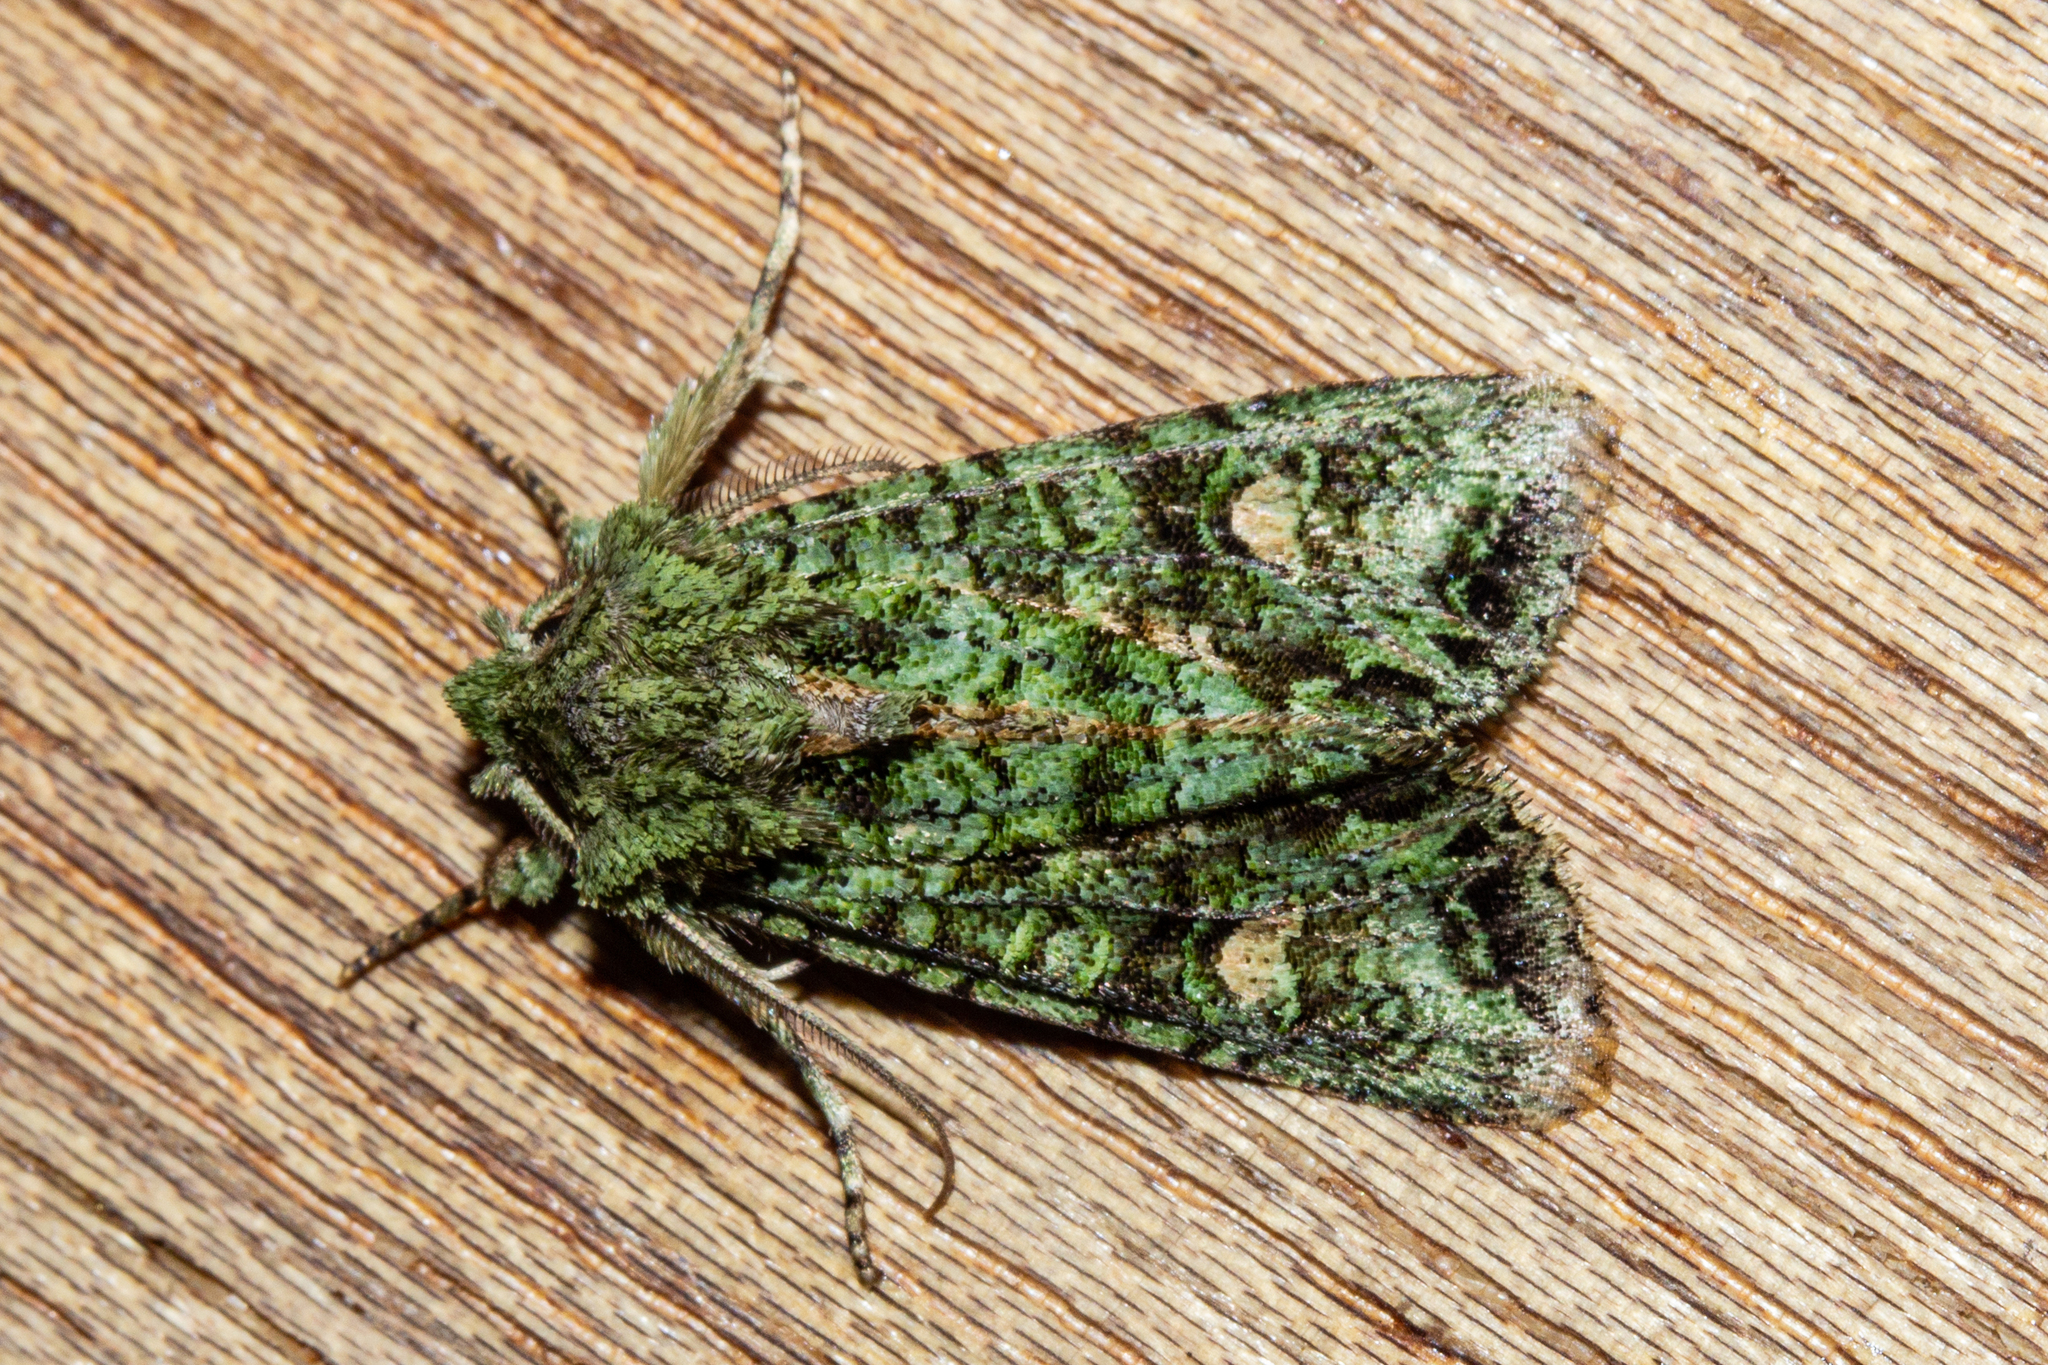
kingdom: Animalia
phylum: Arthropoda
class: Insecta
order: Lepidoptera
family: Noctuidae
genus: Ichneutica
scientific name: Ichneutica
